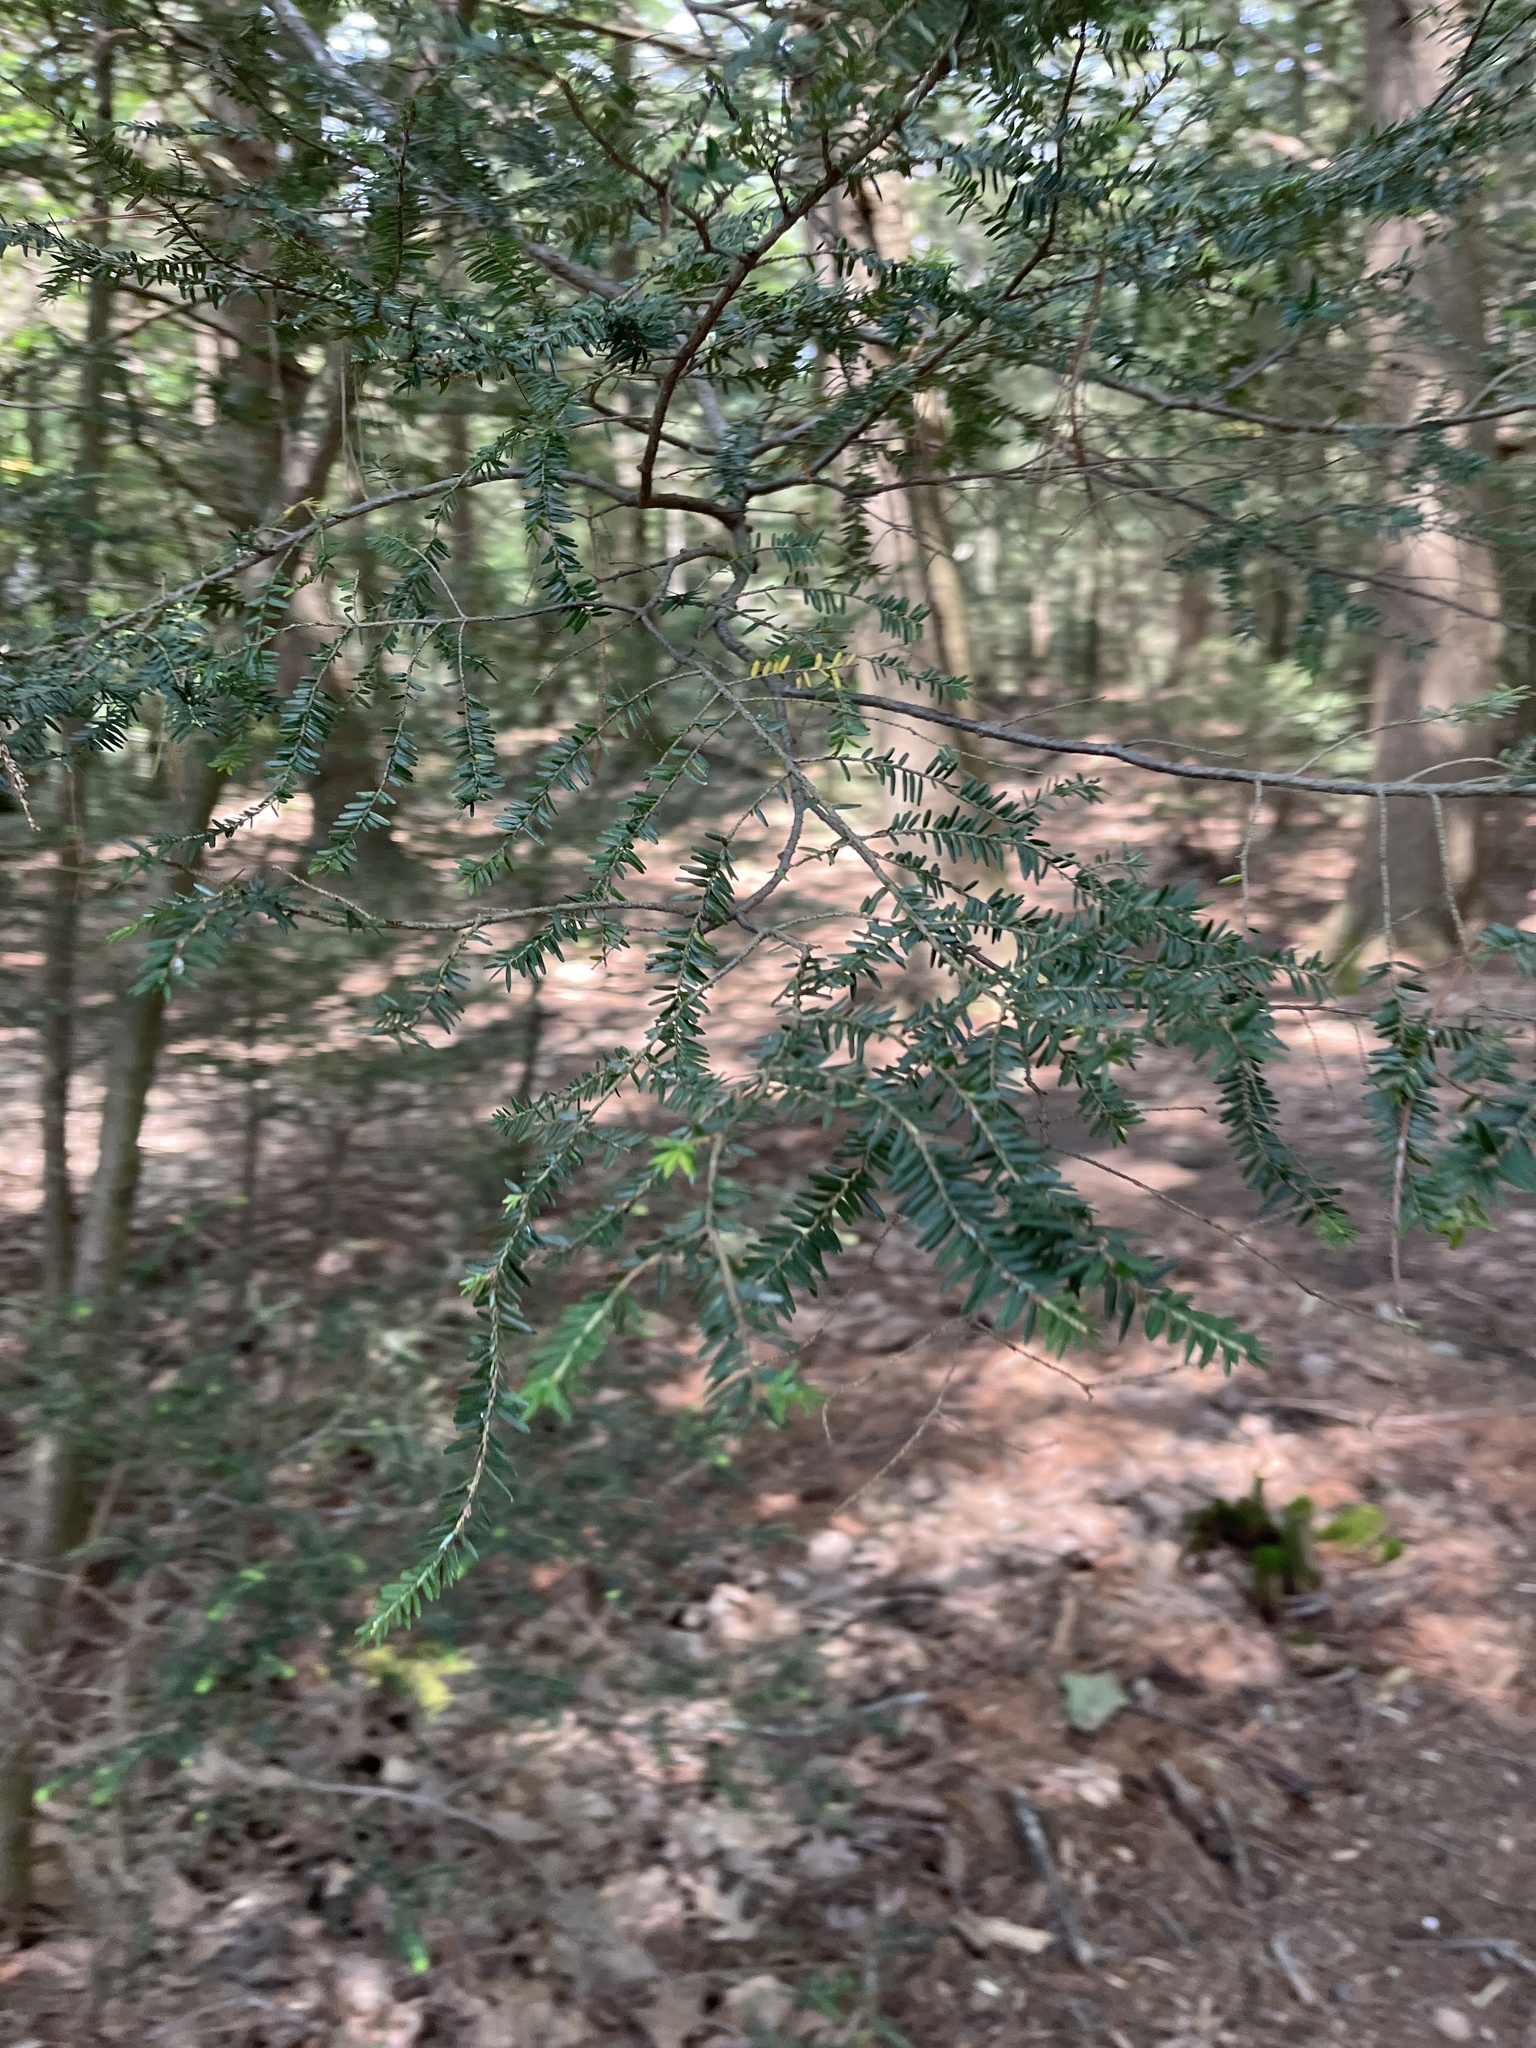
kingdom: Plantae
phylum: Tracheophyta
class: Pinopsida
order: Pinales
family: Pinaceae
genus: Tsuga
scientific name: Tsuga canadensis
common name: Eastern hemlock
